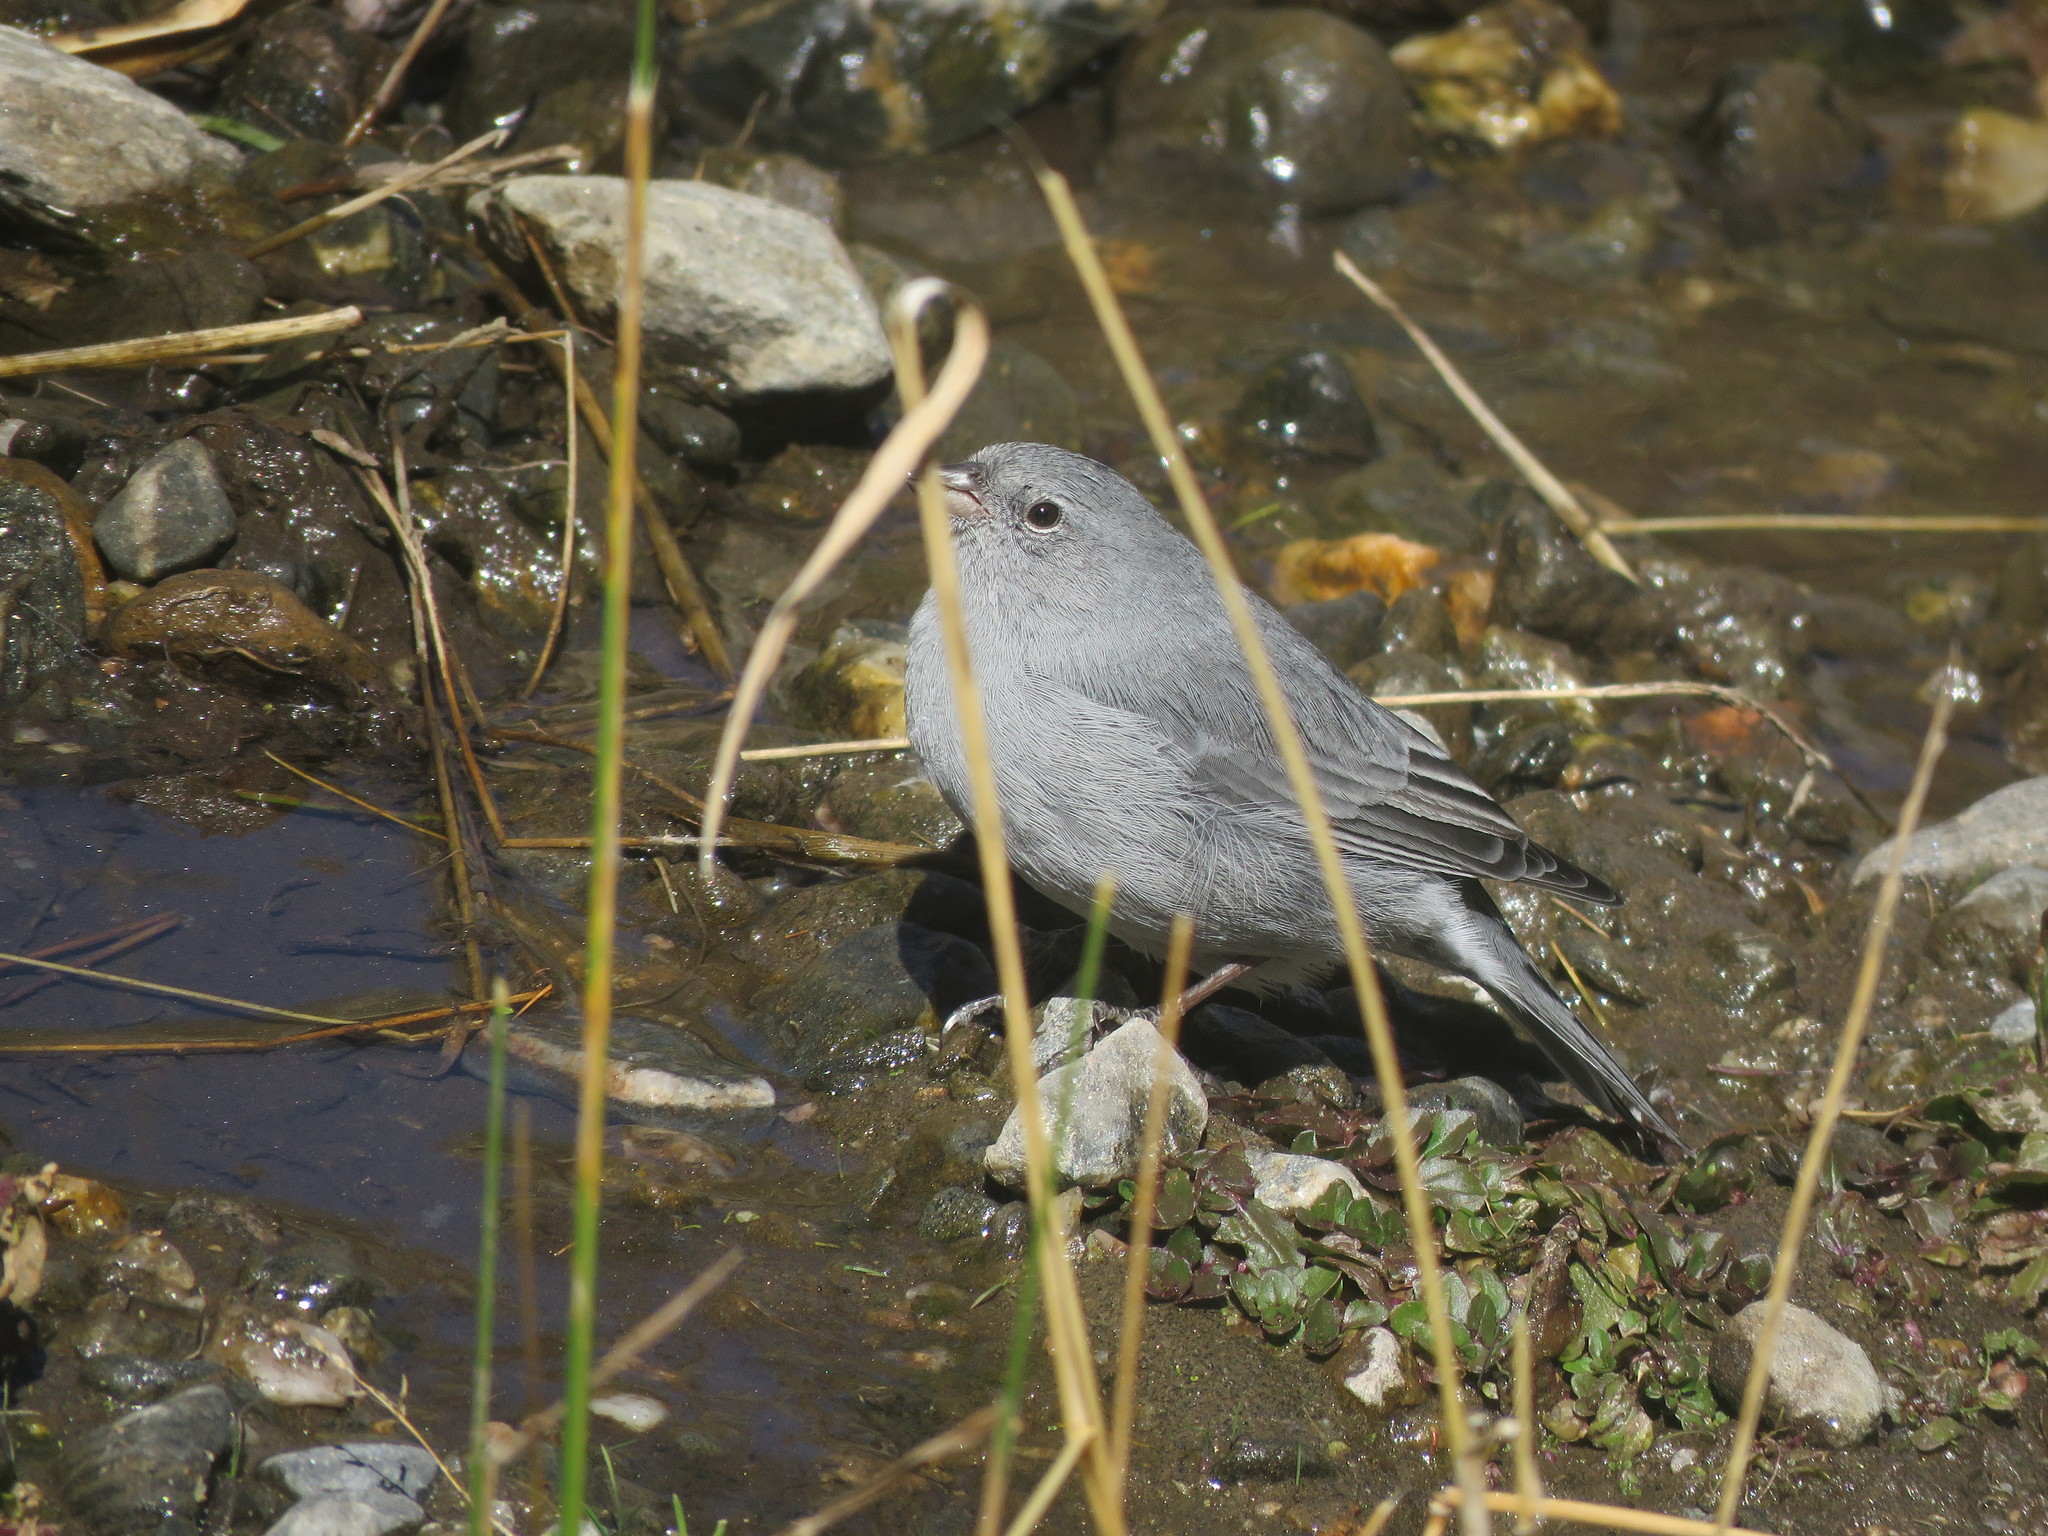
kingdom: Animalia
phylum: Chordata
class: Aves
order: Passeriformes
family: Thraupidae
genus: Geospizopsis
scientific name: Geospizopsis unicolor
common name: Plumbeous sierra-finch
